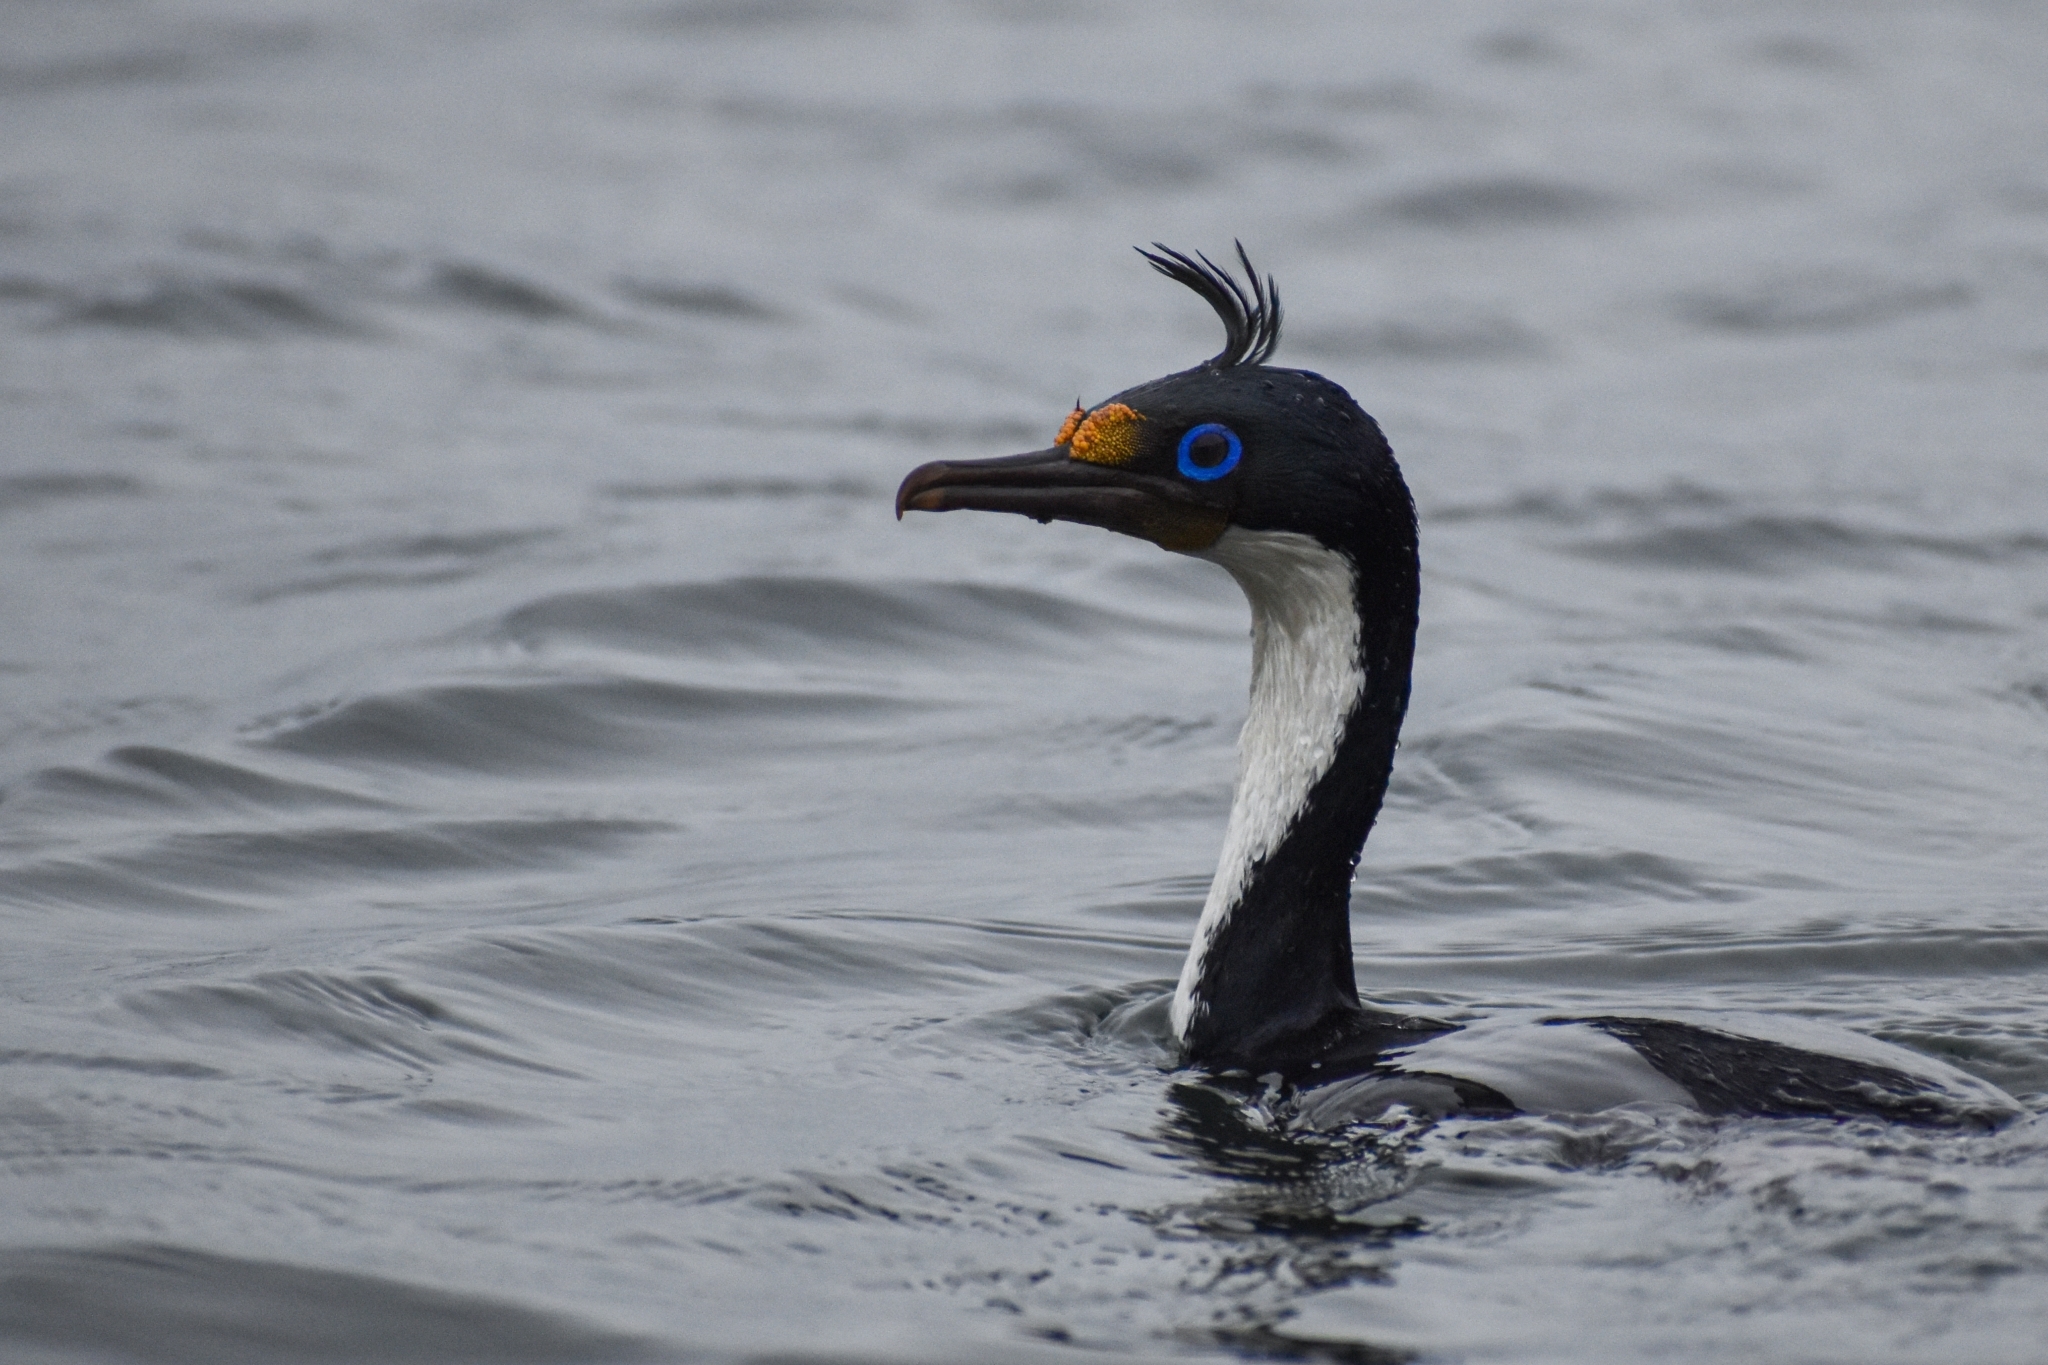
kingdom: Animalia
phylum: Chordata
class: Aves
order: Suliformes
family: Phalacrocoracidae
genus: Leucocarbo
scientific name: Leucocarbo albiventer
